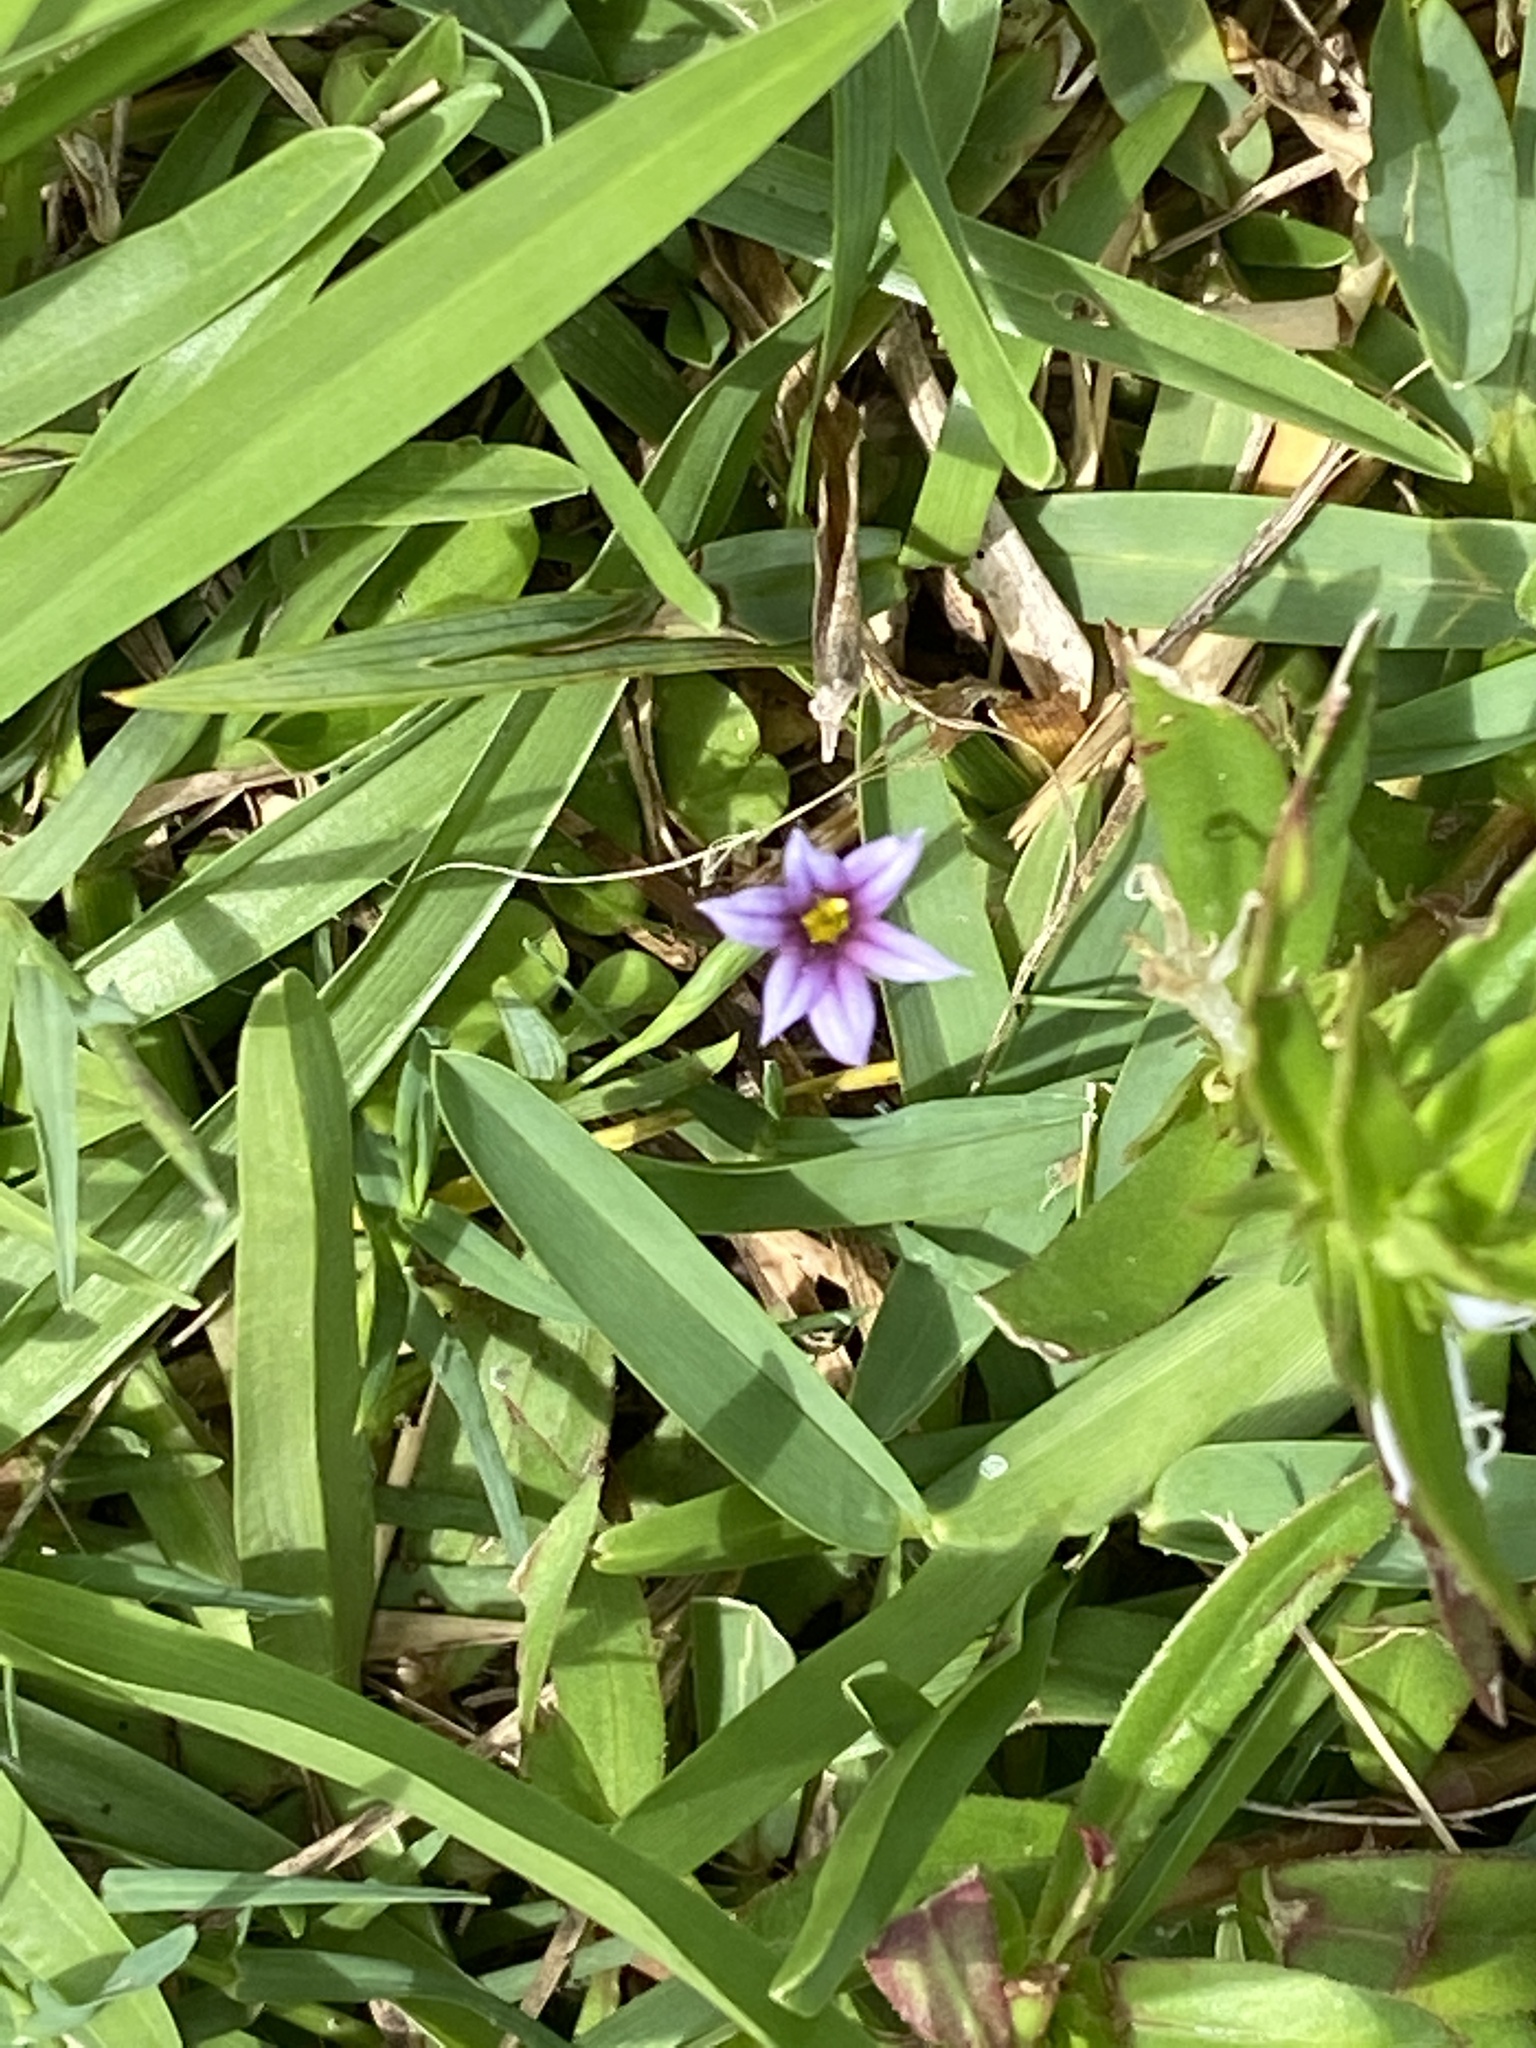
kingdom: Plantae
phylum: Tracheophyta
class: Liliopsida
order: Asparagales
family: Iridaceae
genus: Sisyrinchium
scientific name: Sisyrinchium micranthum
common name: Bermuda pigroot
